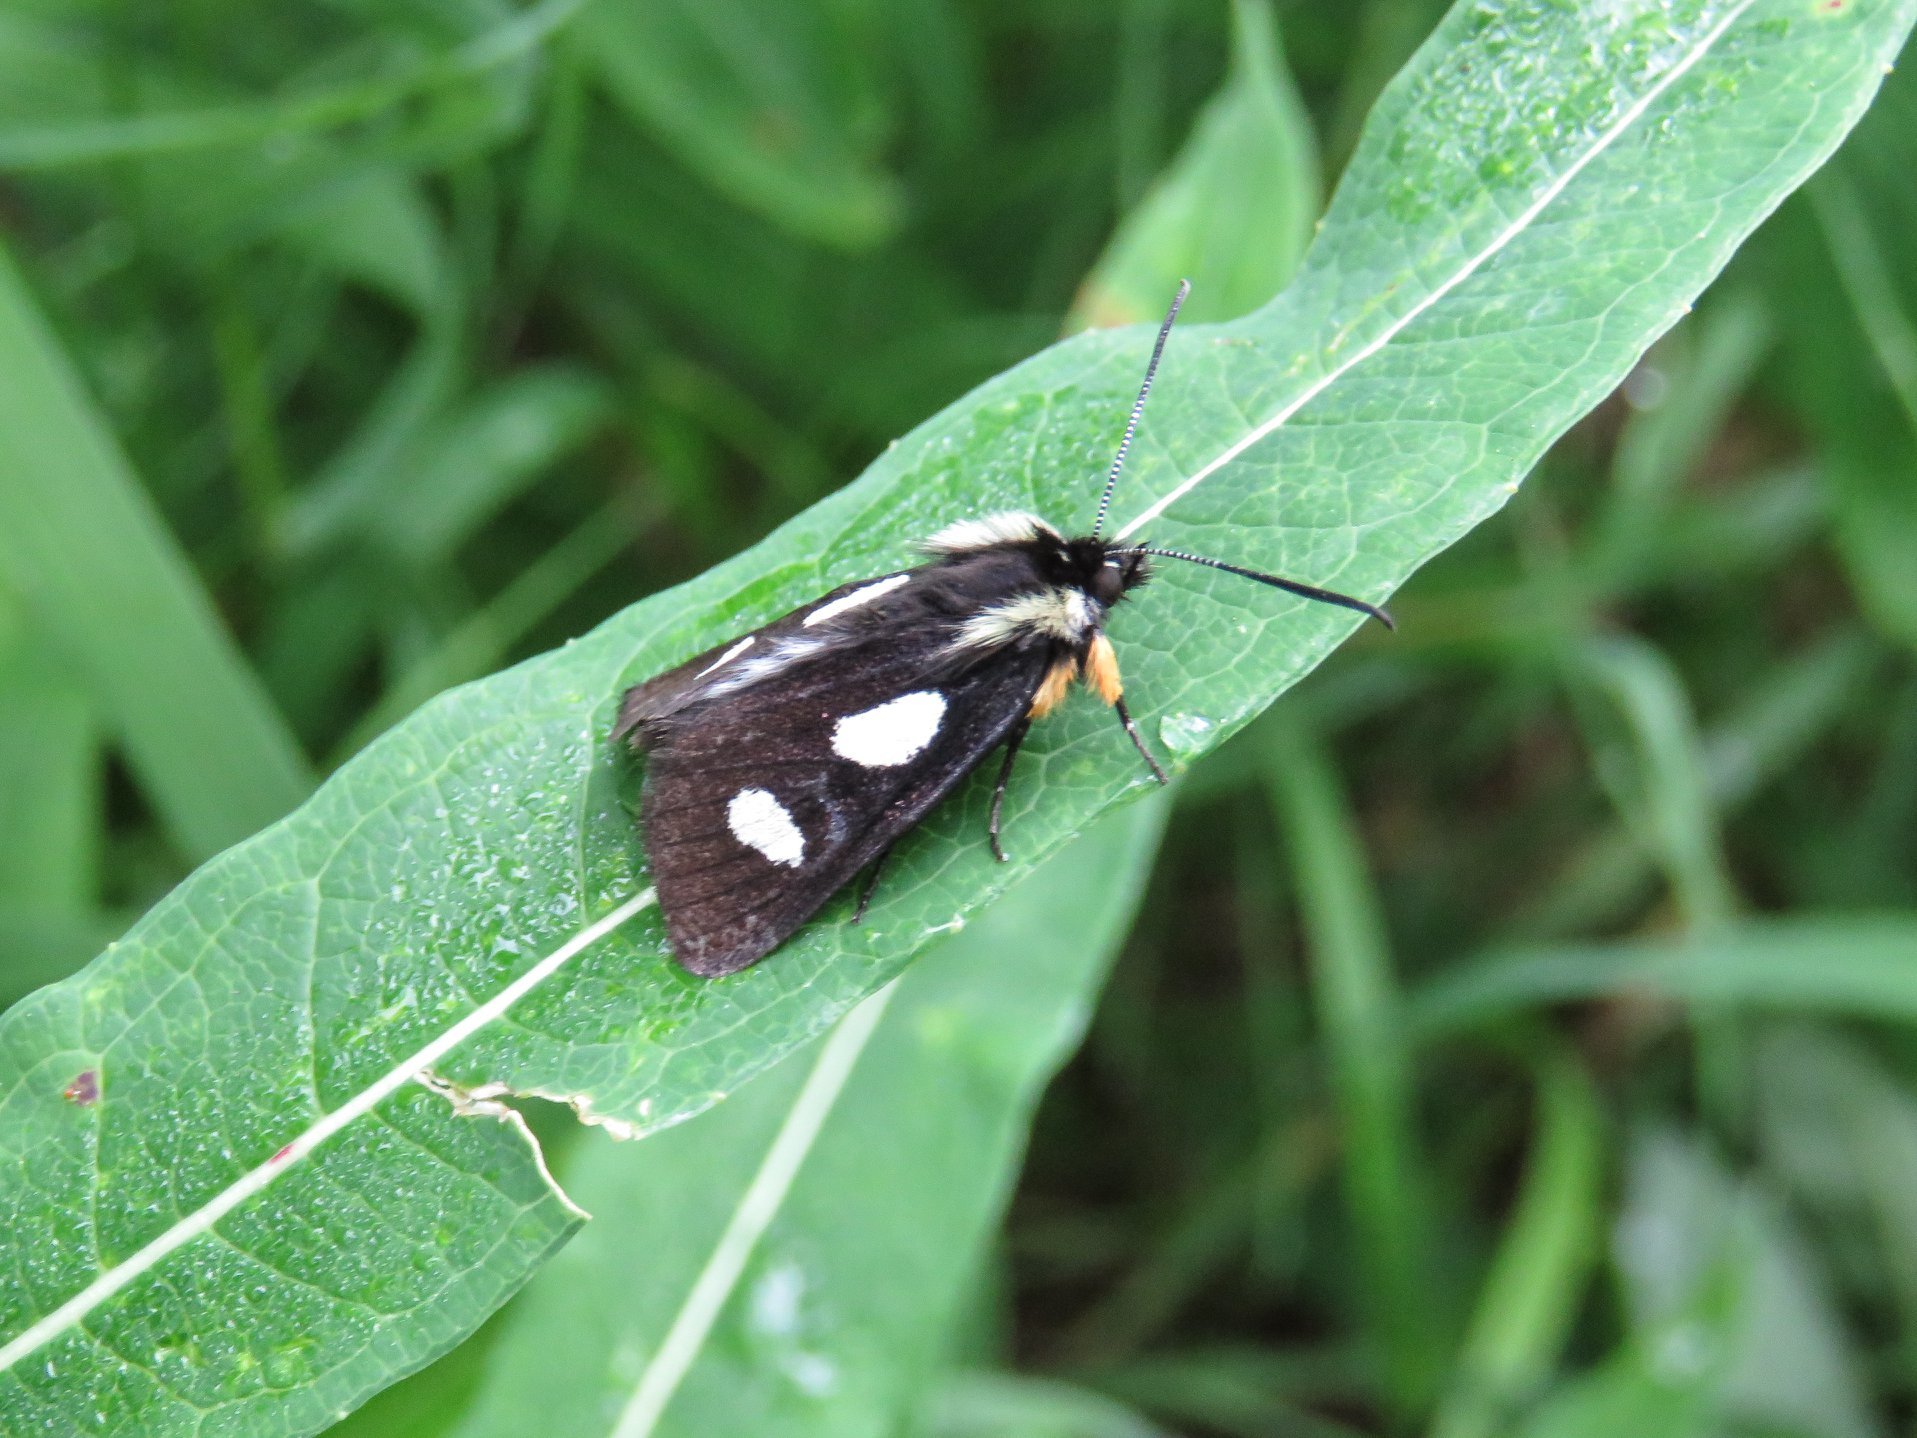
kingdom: Animalia
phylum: Arthropoda
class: Insecta
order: Lepidoptera
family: Noctuidae
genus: Alypia
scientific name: Alypia langtonii
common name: Fireweed caterpillar
